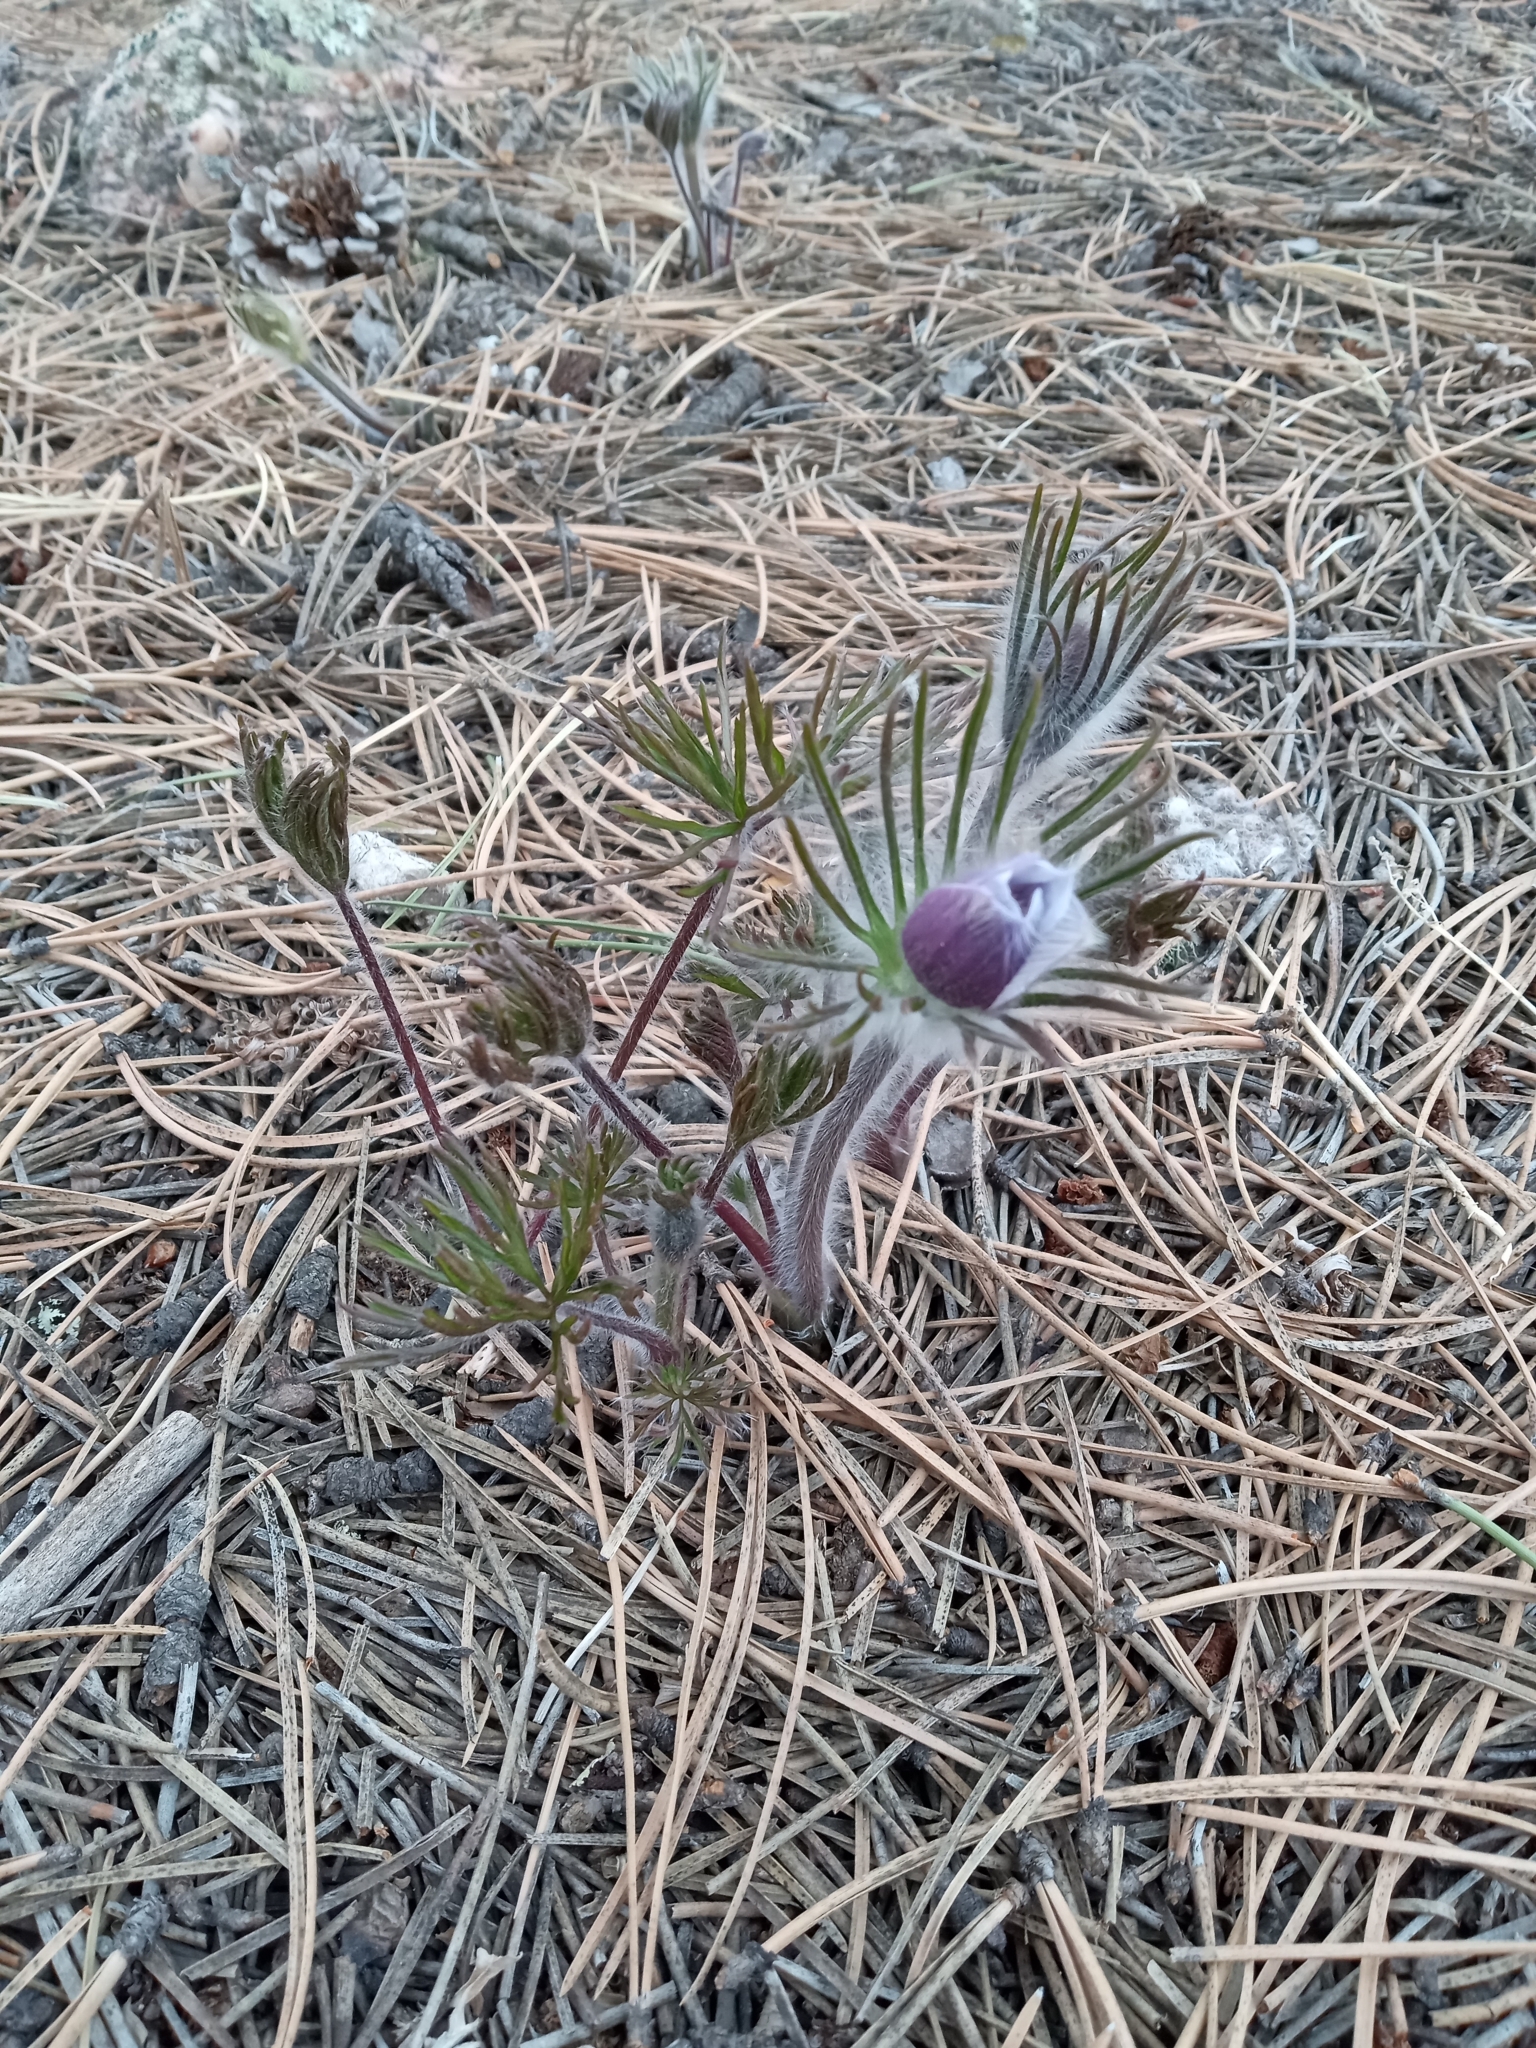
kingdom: Plantae
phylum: Tracheophyta
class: Magnoliopsida
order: Ranunculales
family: Ranunculaceae
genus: Pulsatilla
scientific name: Pulsatilla nuttalliana
